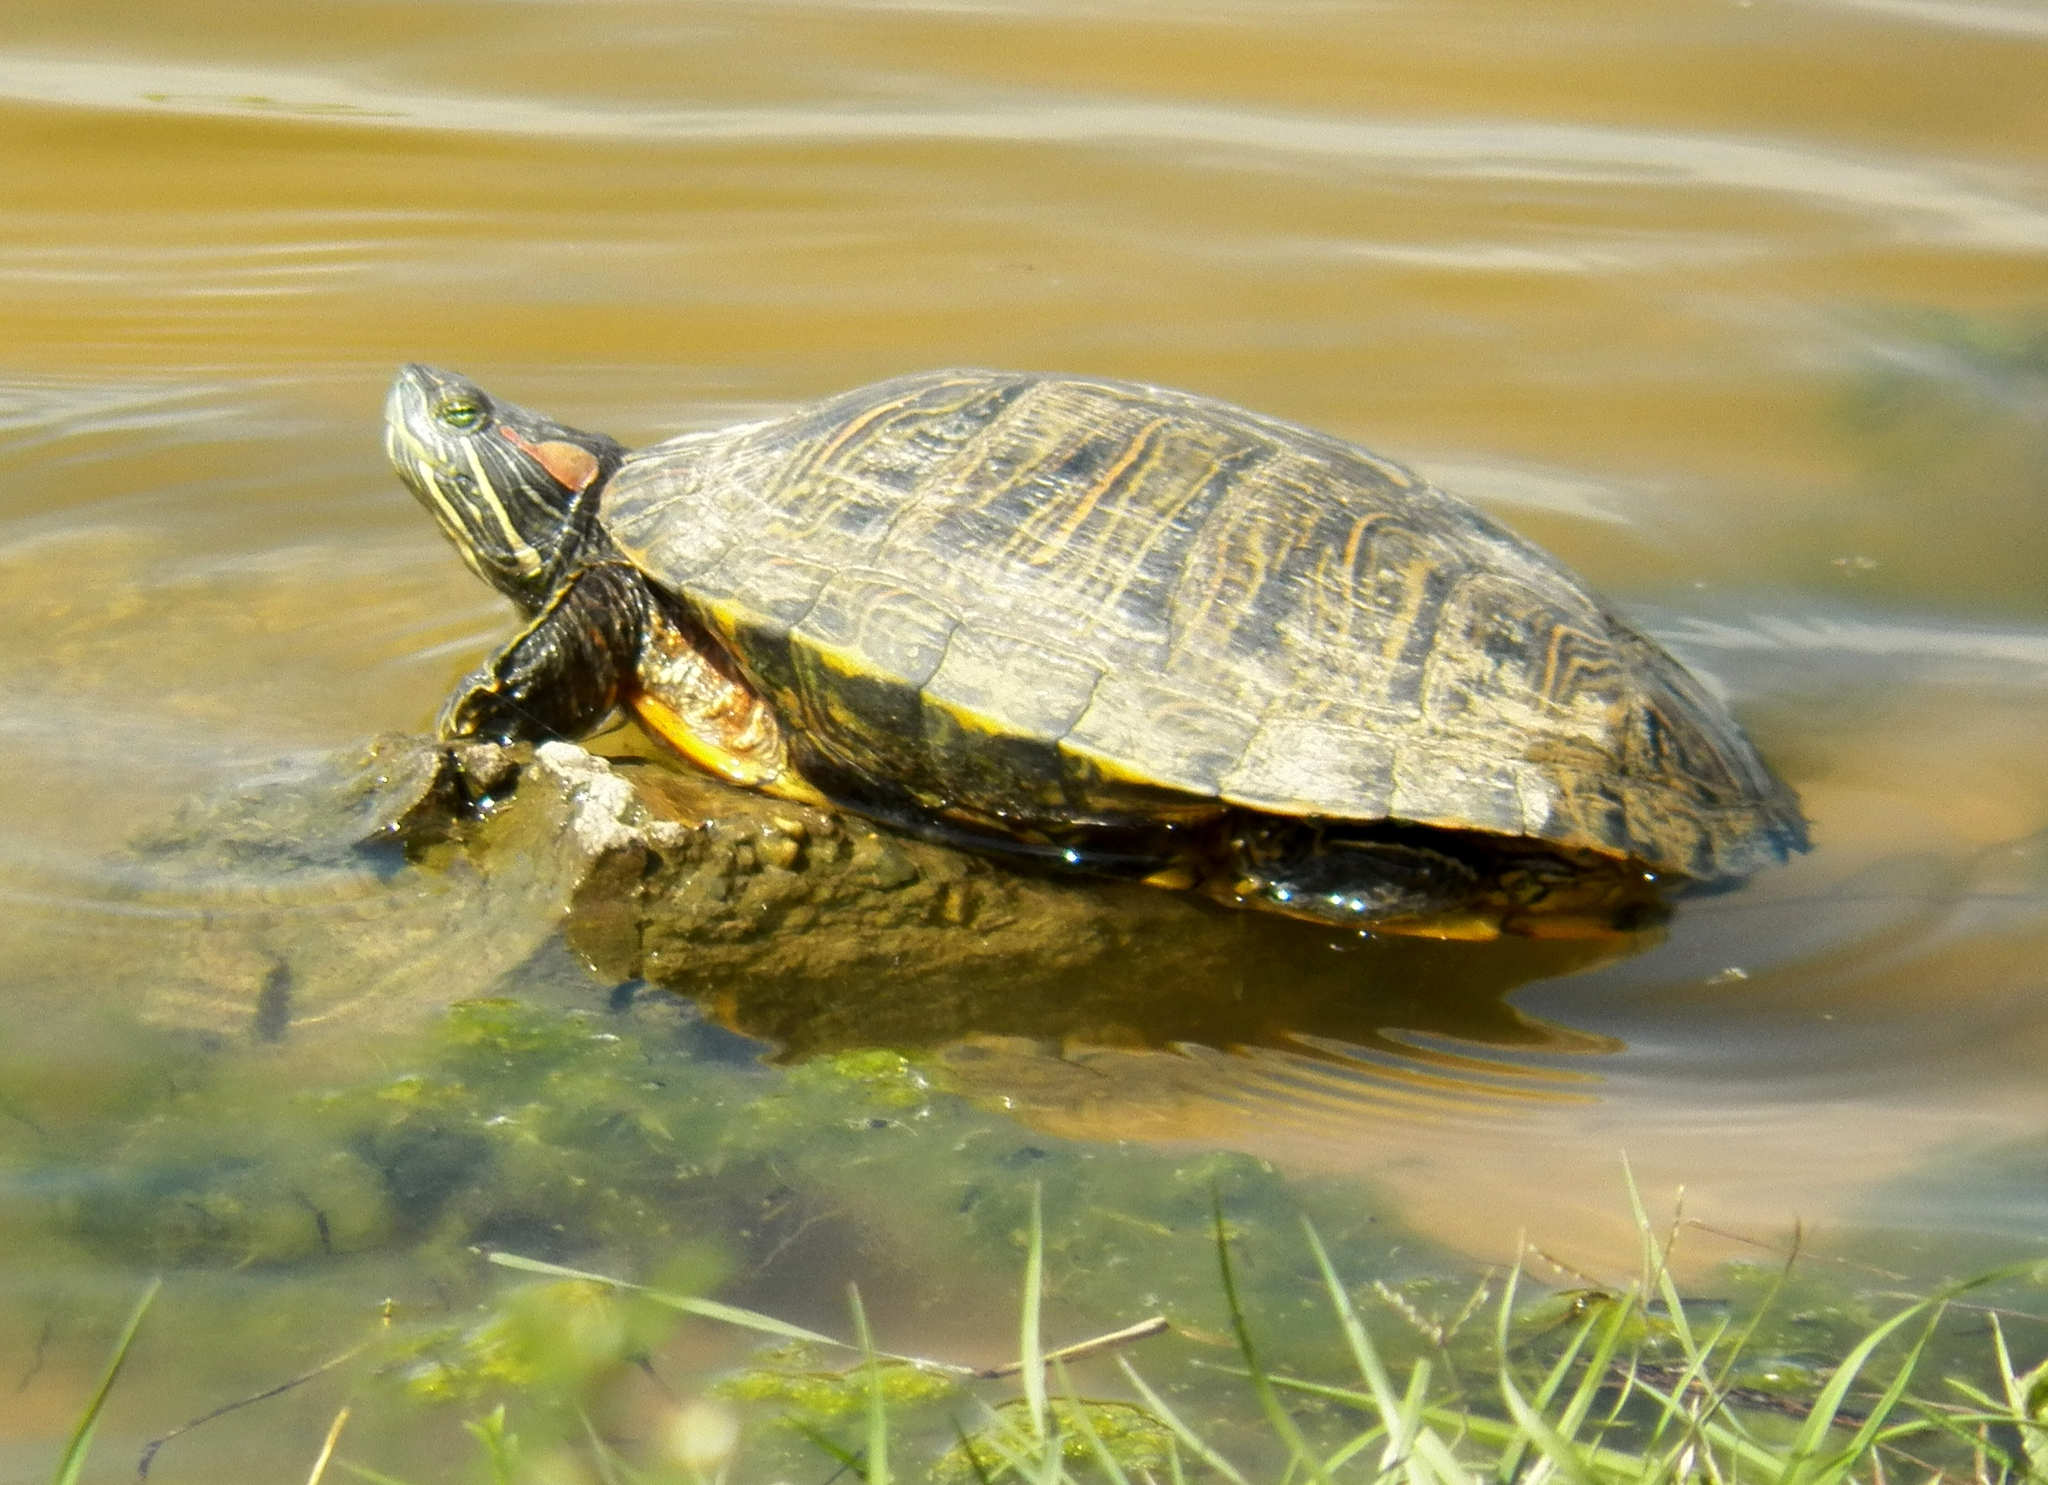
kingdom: Animalia
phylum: Chordata
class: Testudines
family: Emydidae
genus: Trachemys
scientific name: Trachemys scripta
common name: Slider
